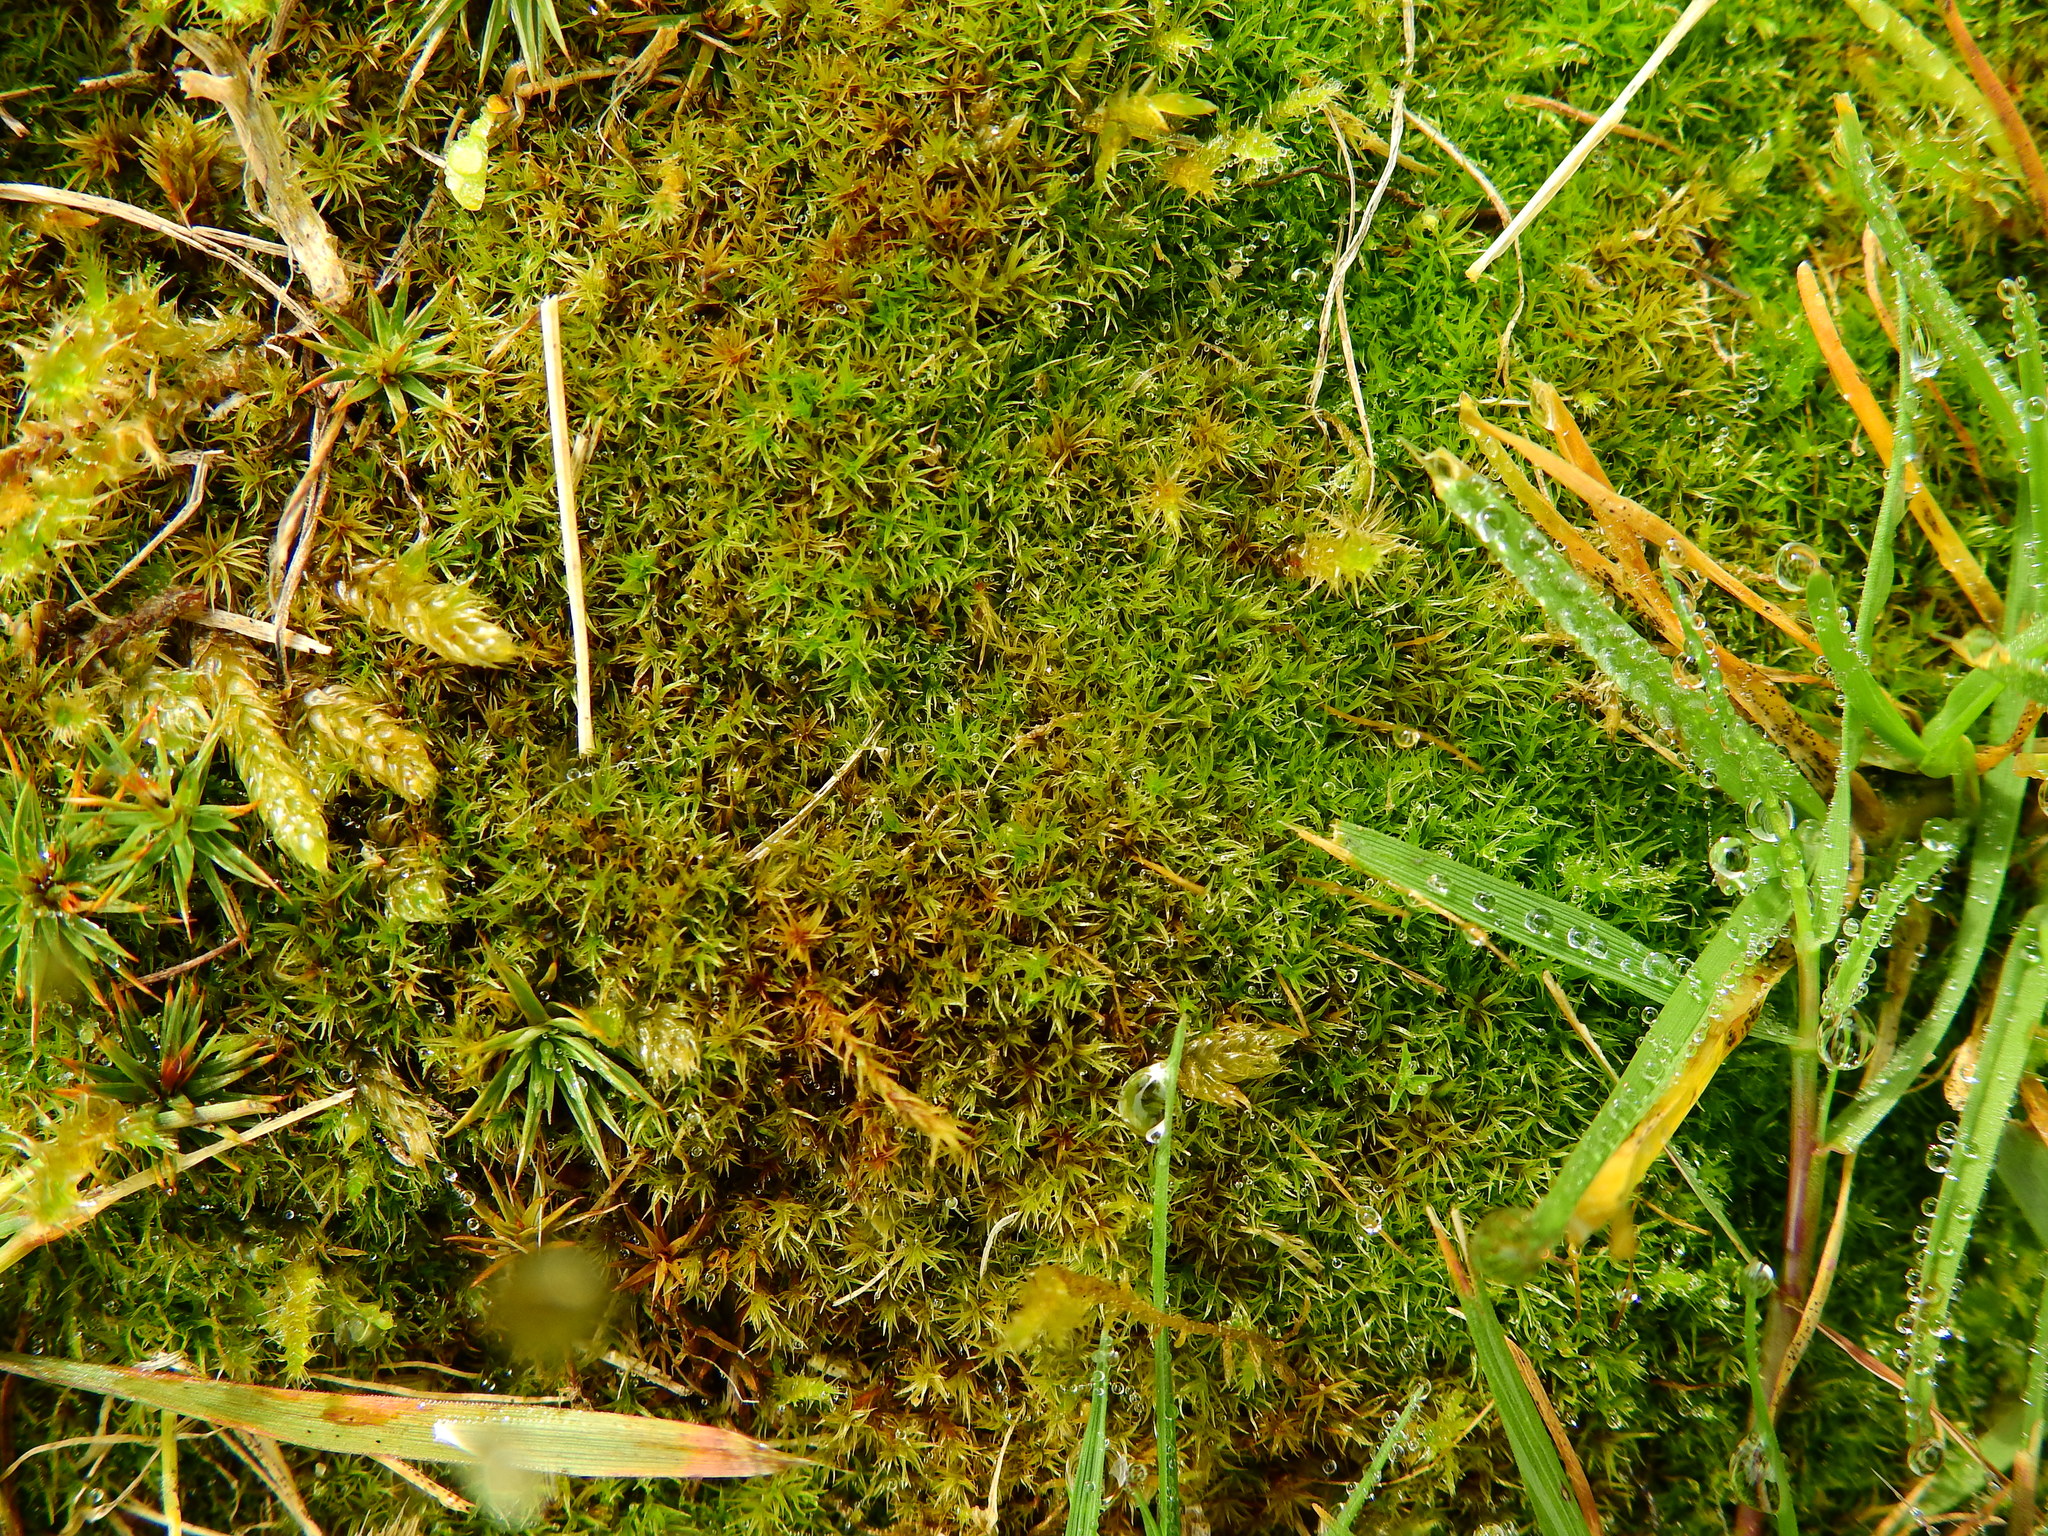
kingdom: Plantae
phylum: Bryophyta
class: Bryopsida
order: Dicranales
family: Ditrichaceae
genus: Ceratodon
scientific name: Ceratodon purpureus
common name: Redshank
